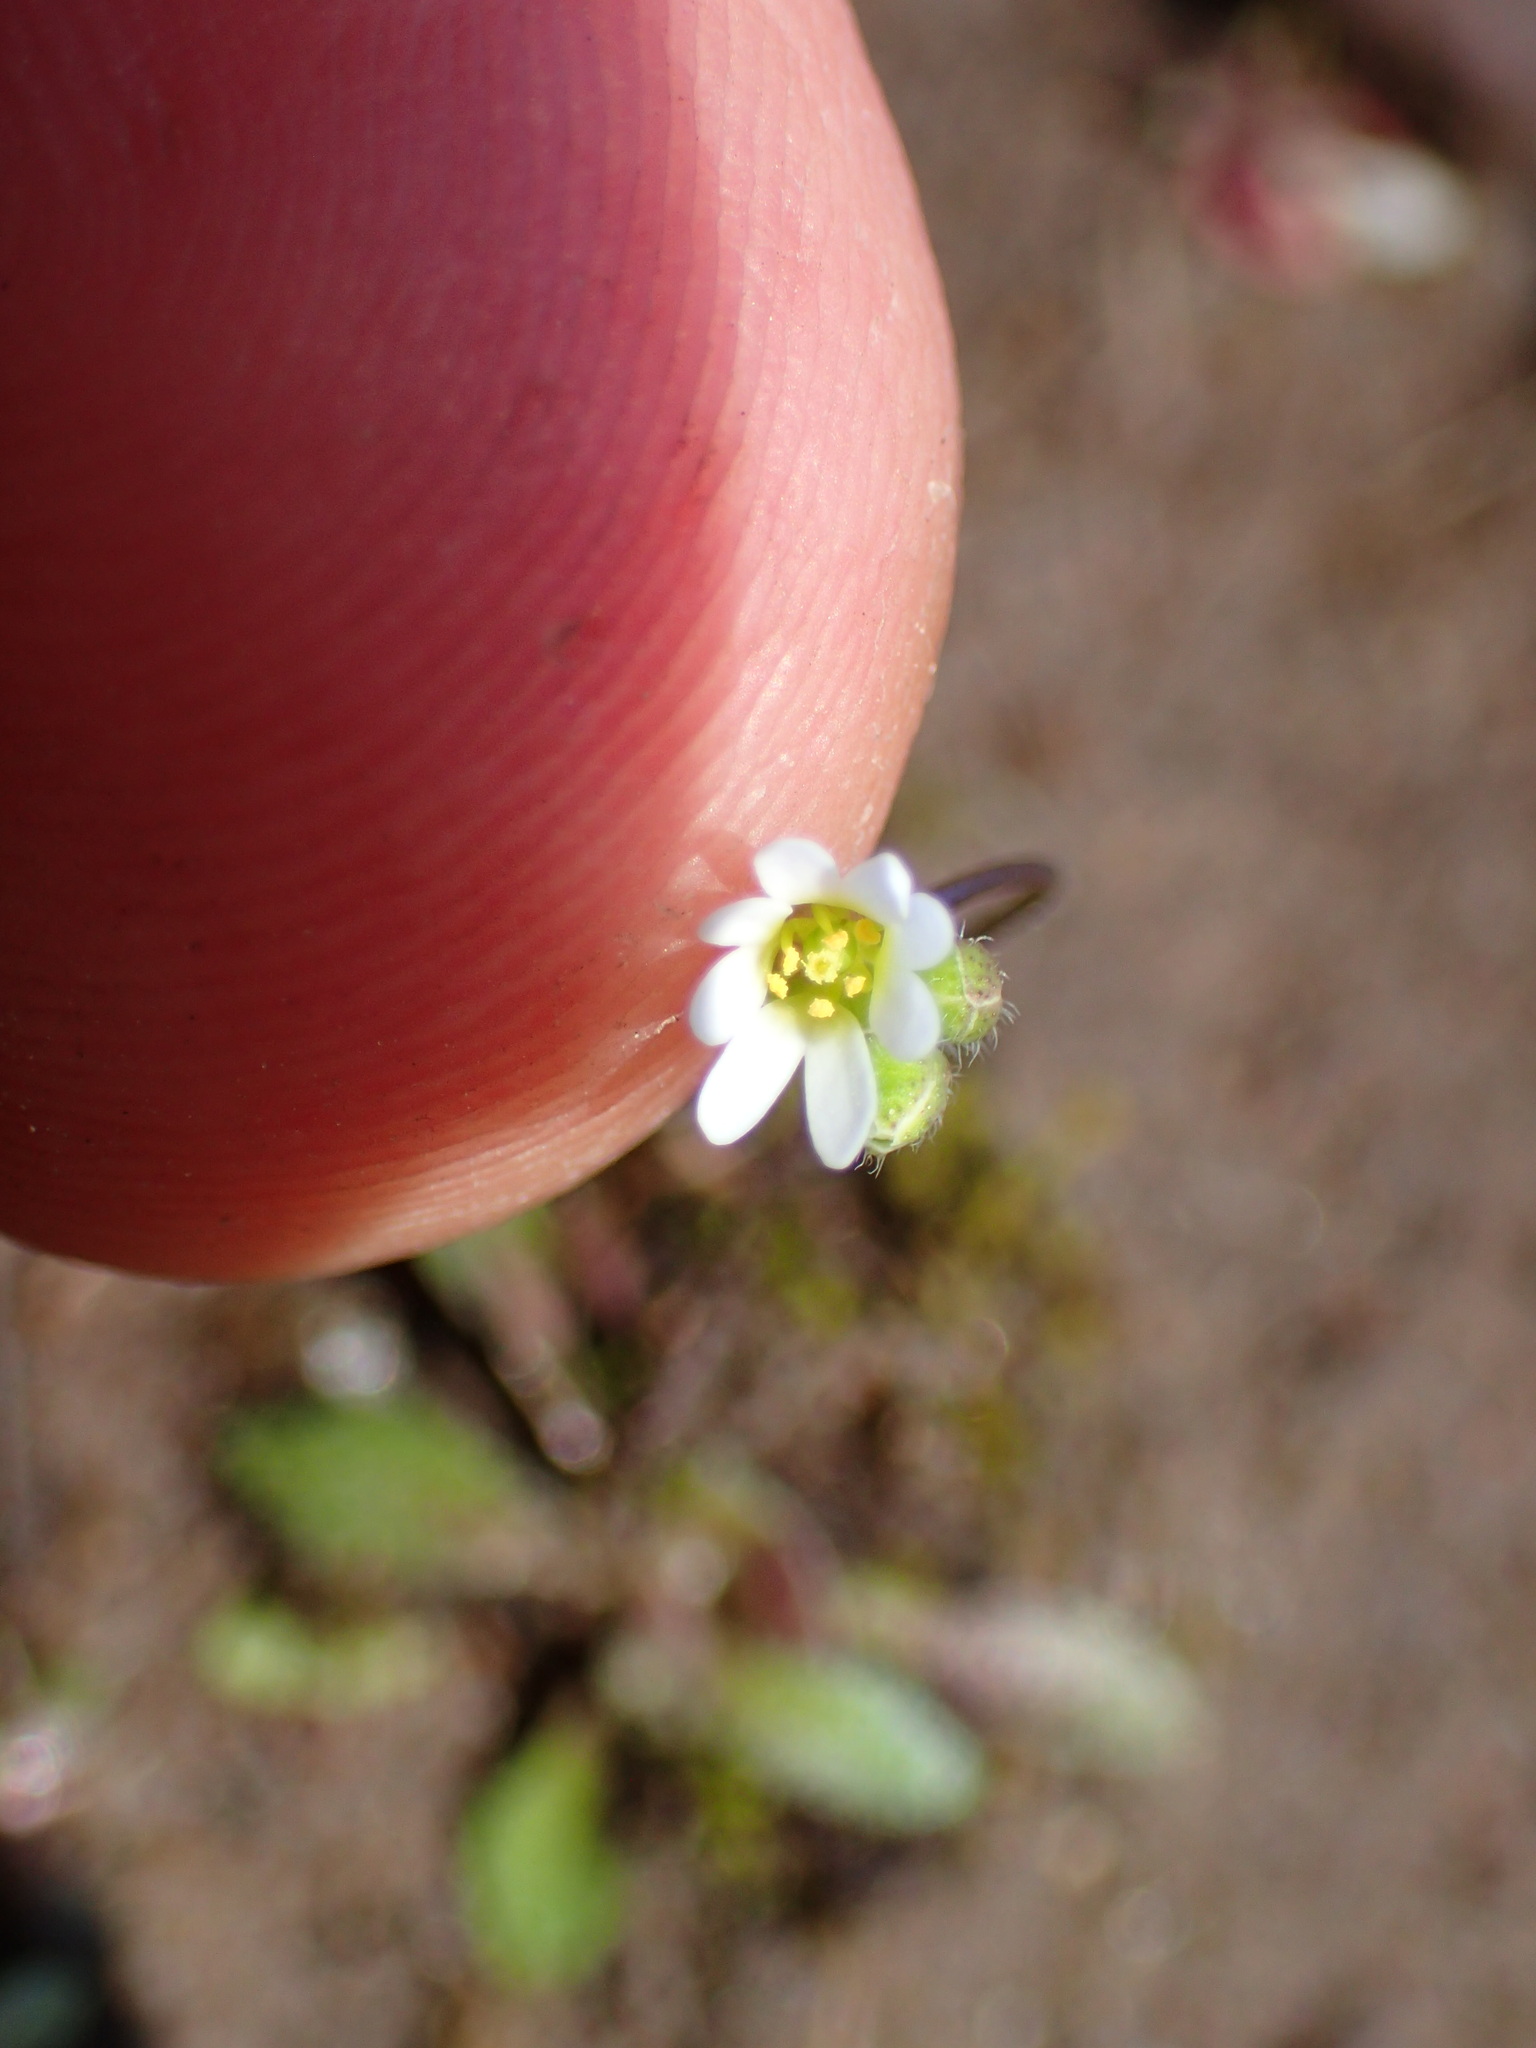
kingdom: Plantae
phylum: Tracheophyta
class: Magnoliopsida
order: Brassicales
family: Brassicaceae
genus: Draba
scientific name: Draba verna
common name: Spring draba
